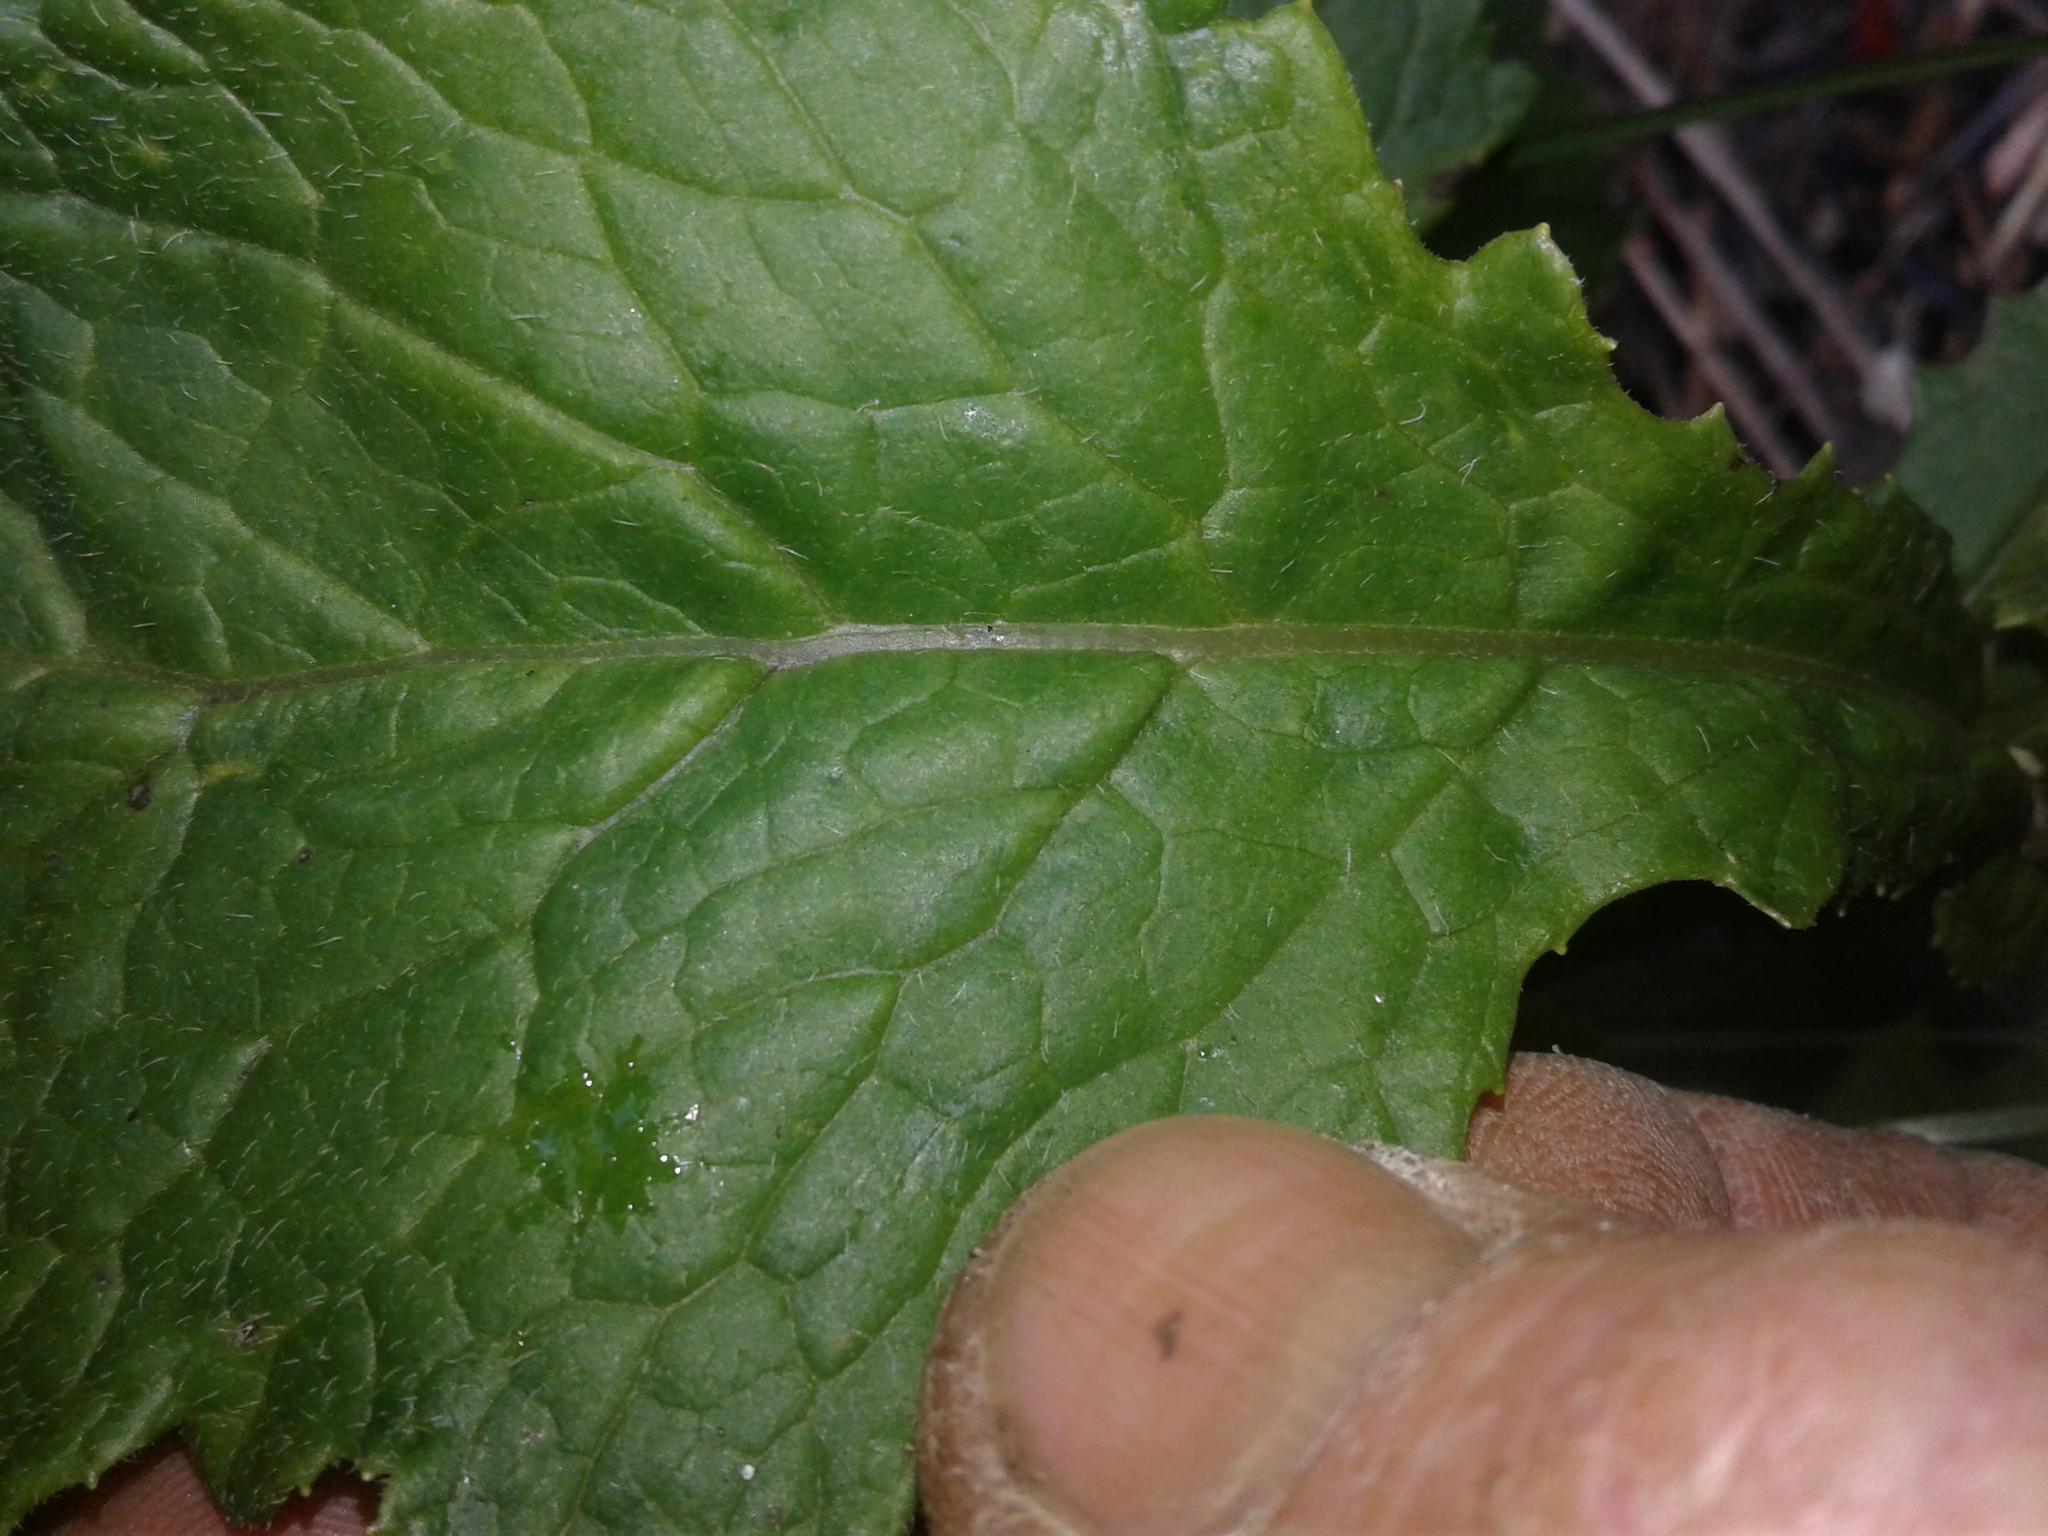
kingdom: Plantae
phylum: Tracheophyta
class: Magnoliopsida
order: Asterales
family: Asteraceae
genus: Senecio
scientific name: Senecio rufiglandulosus
